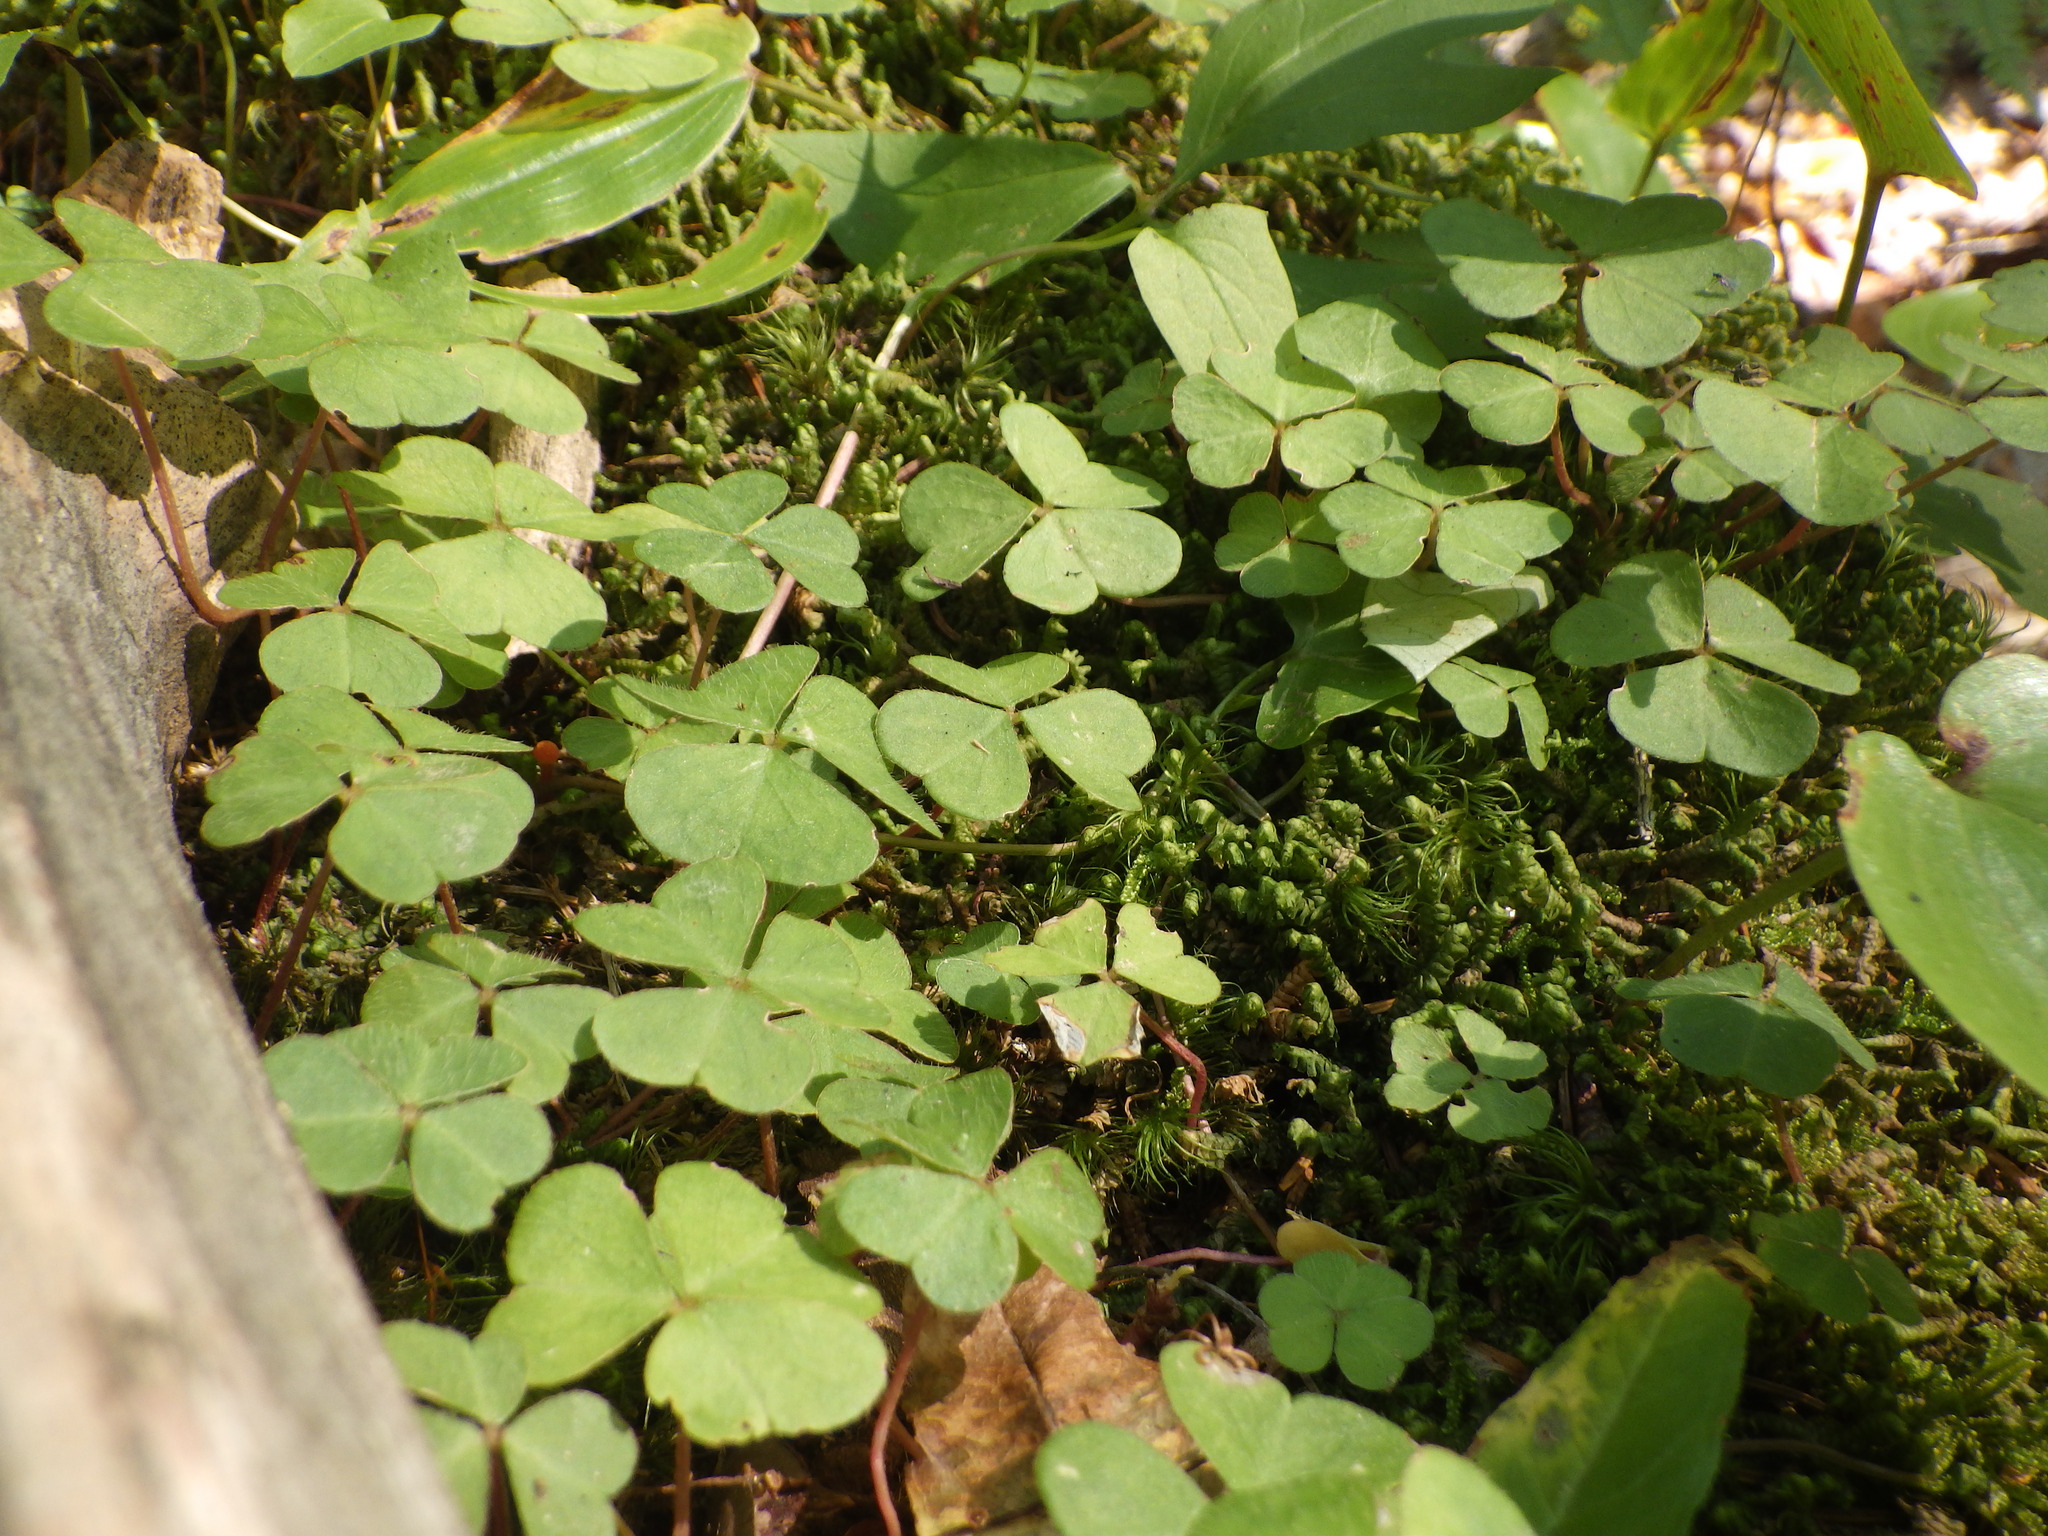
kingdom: Plantae
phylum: Tracheophyta
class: Magnoliopsida
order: Oxalidales
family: Oxalidaceae
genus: Oxalis
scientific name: Oxalis montana
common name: American wood-sorrel
